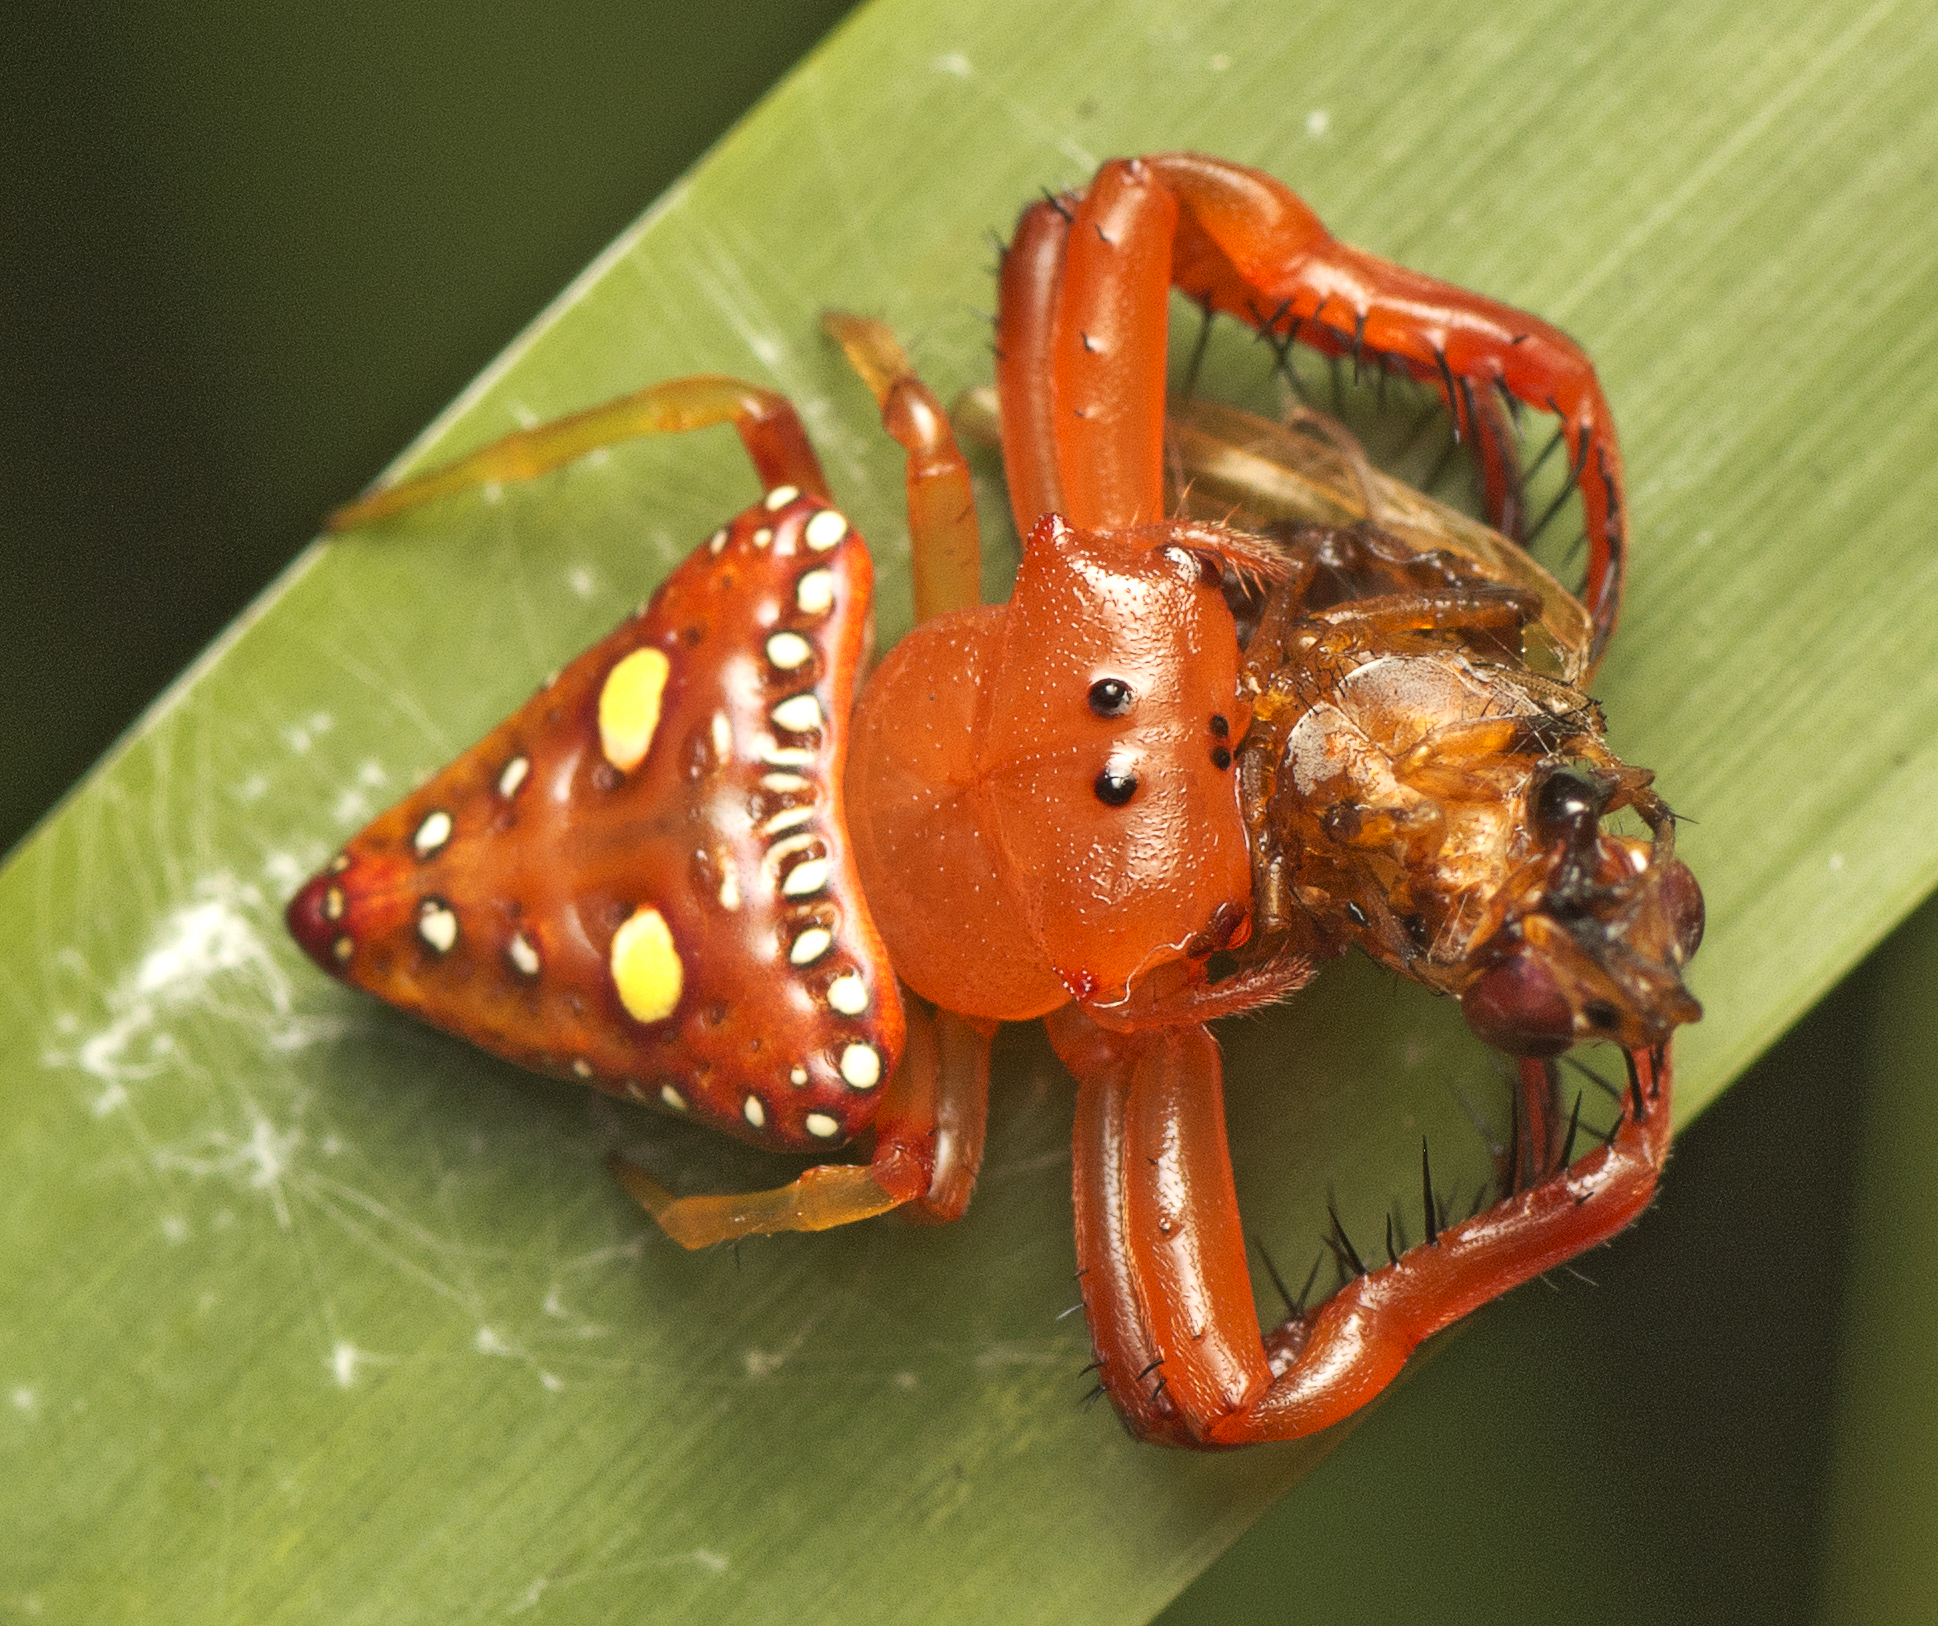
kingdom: Animalia
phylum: Arthropoda
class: Arachnida
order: Araneae
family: Arkyidae
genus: Arkys
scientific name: Arkys lancearius
